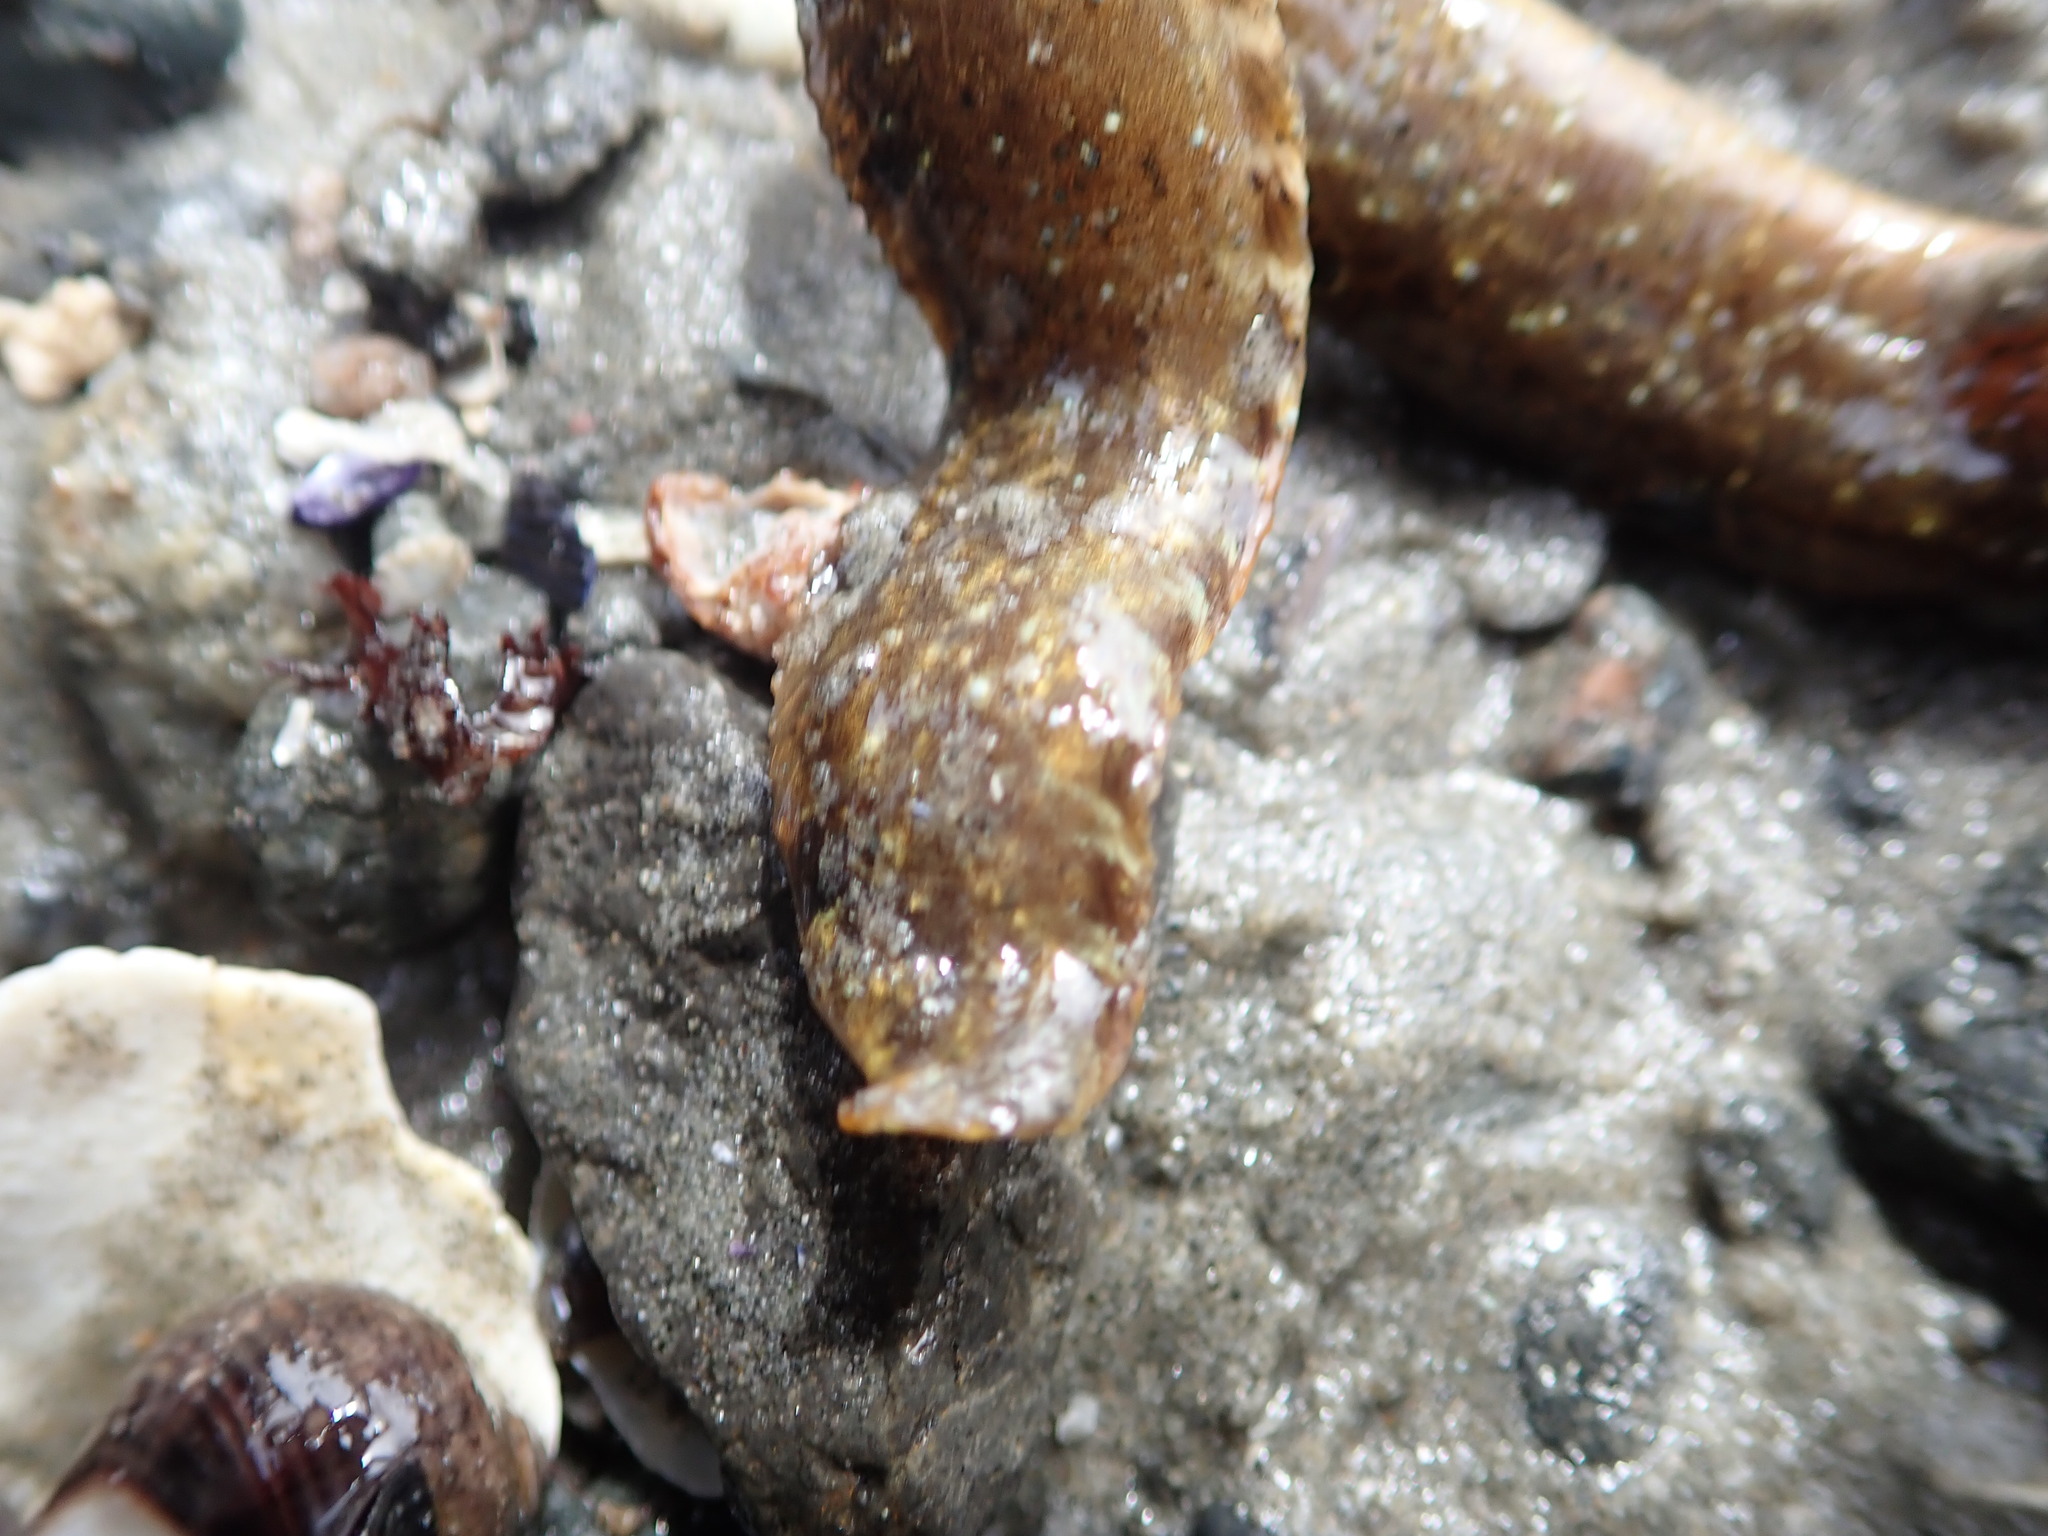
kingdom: Animalia
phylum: Chordata
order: Perciformes
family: Pholidae
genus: Pholis
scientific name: Pholis gunnellus
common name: Butterfish
